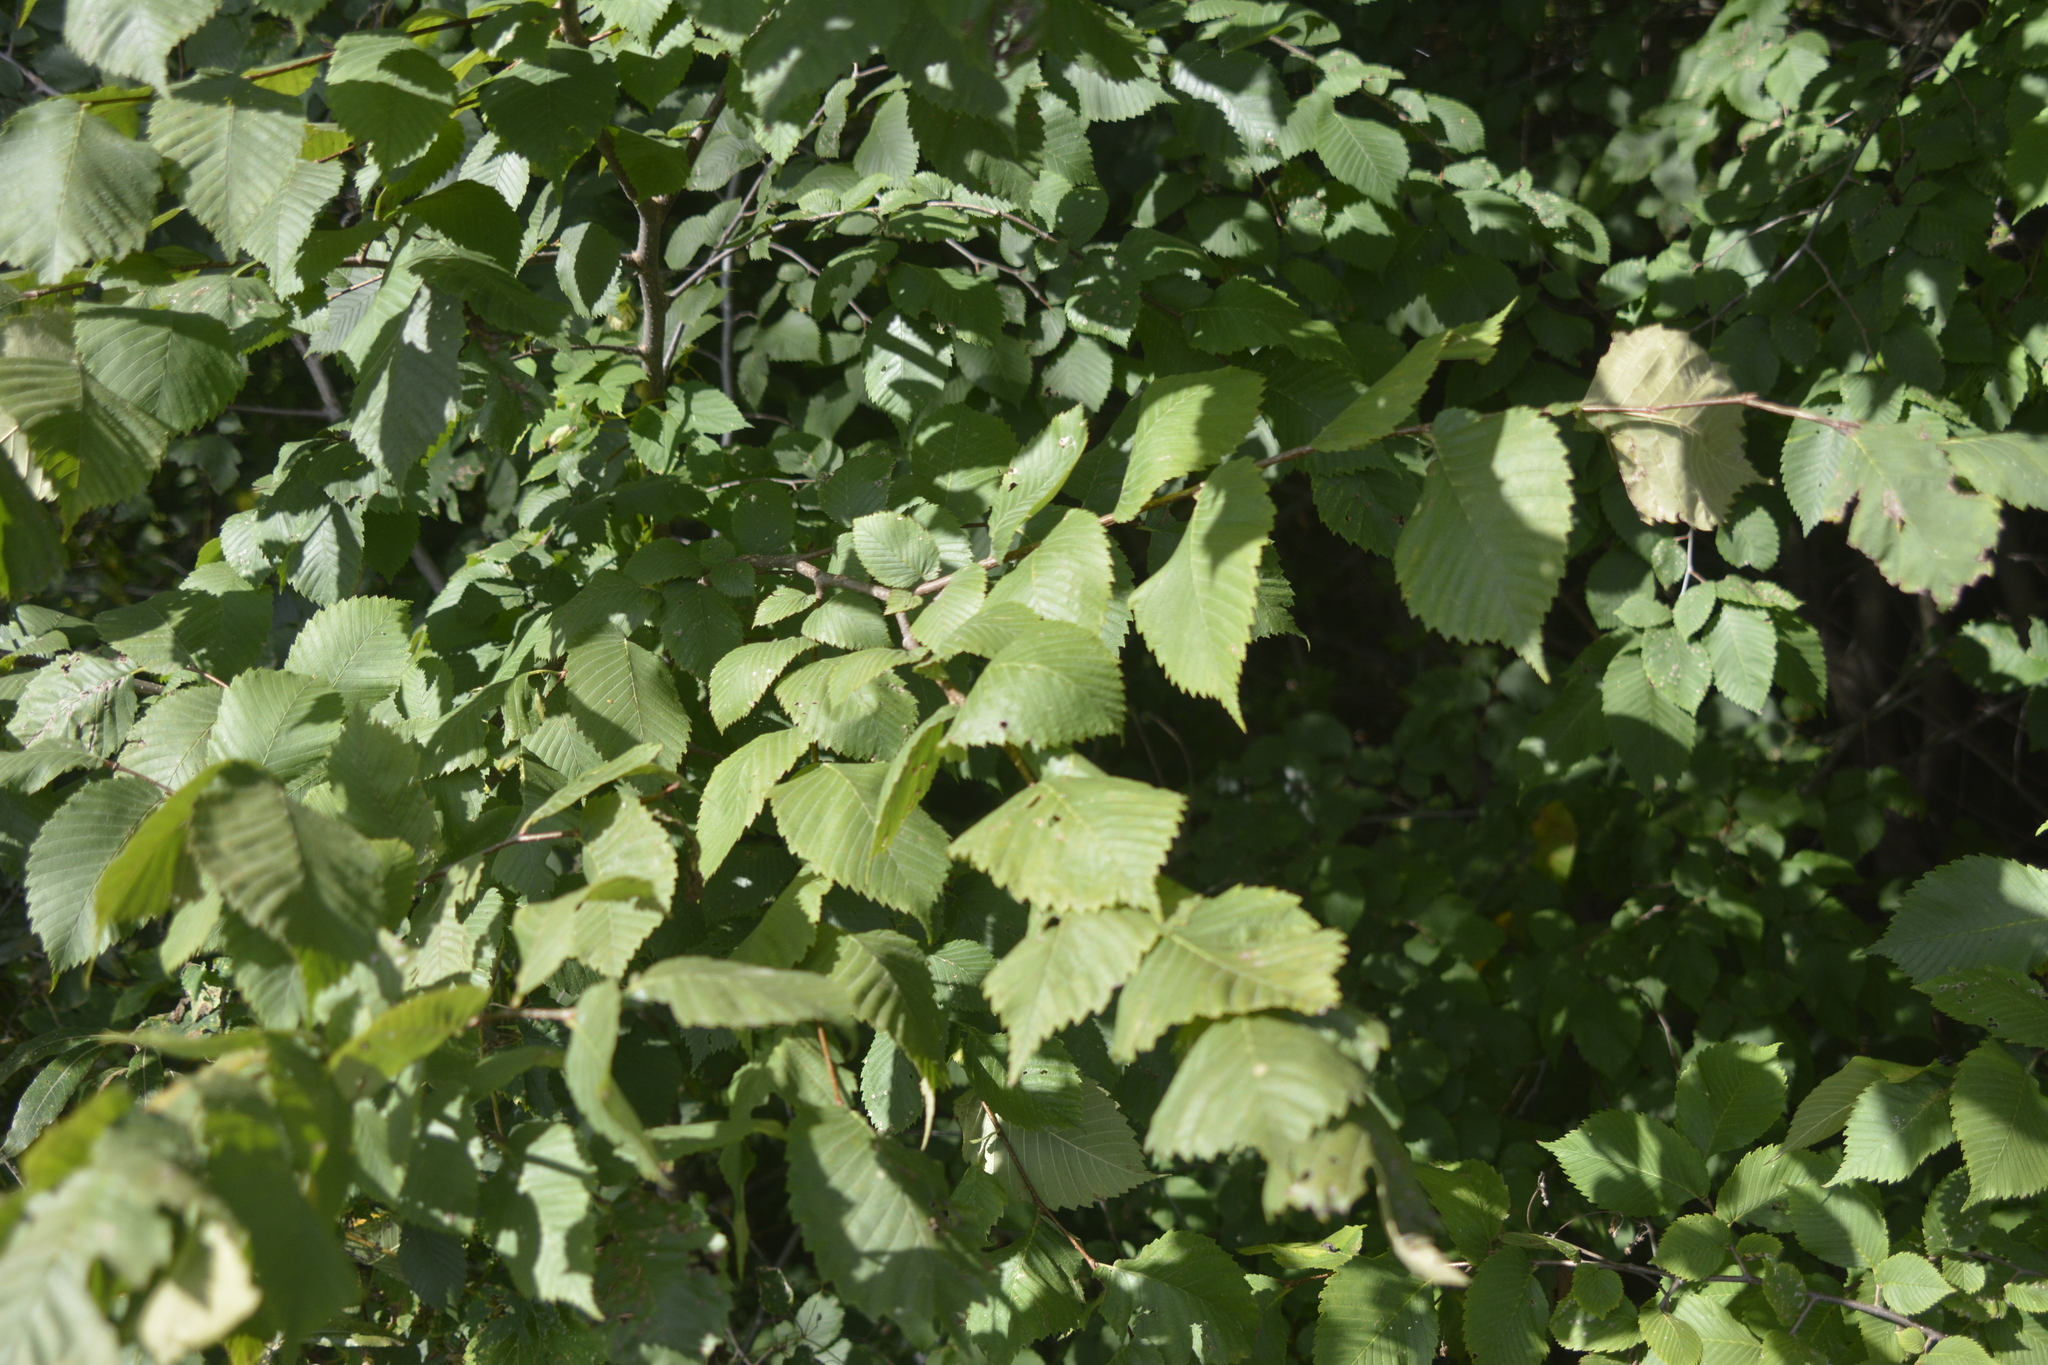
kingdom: Plantae
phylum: Tracheophyta
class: Magnoliopsida
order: Rosales
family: Ulmaceae
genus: Ulmus
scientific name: Ulmus laevis
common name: European white-elm
